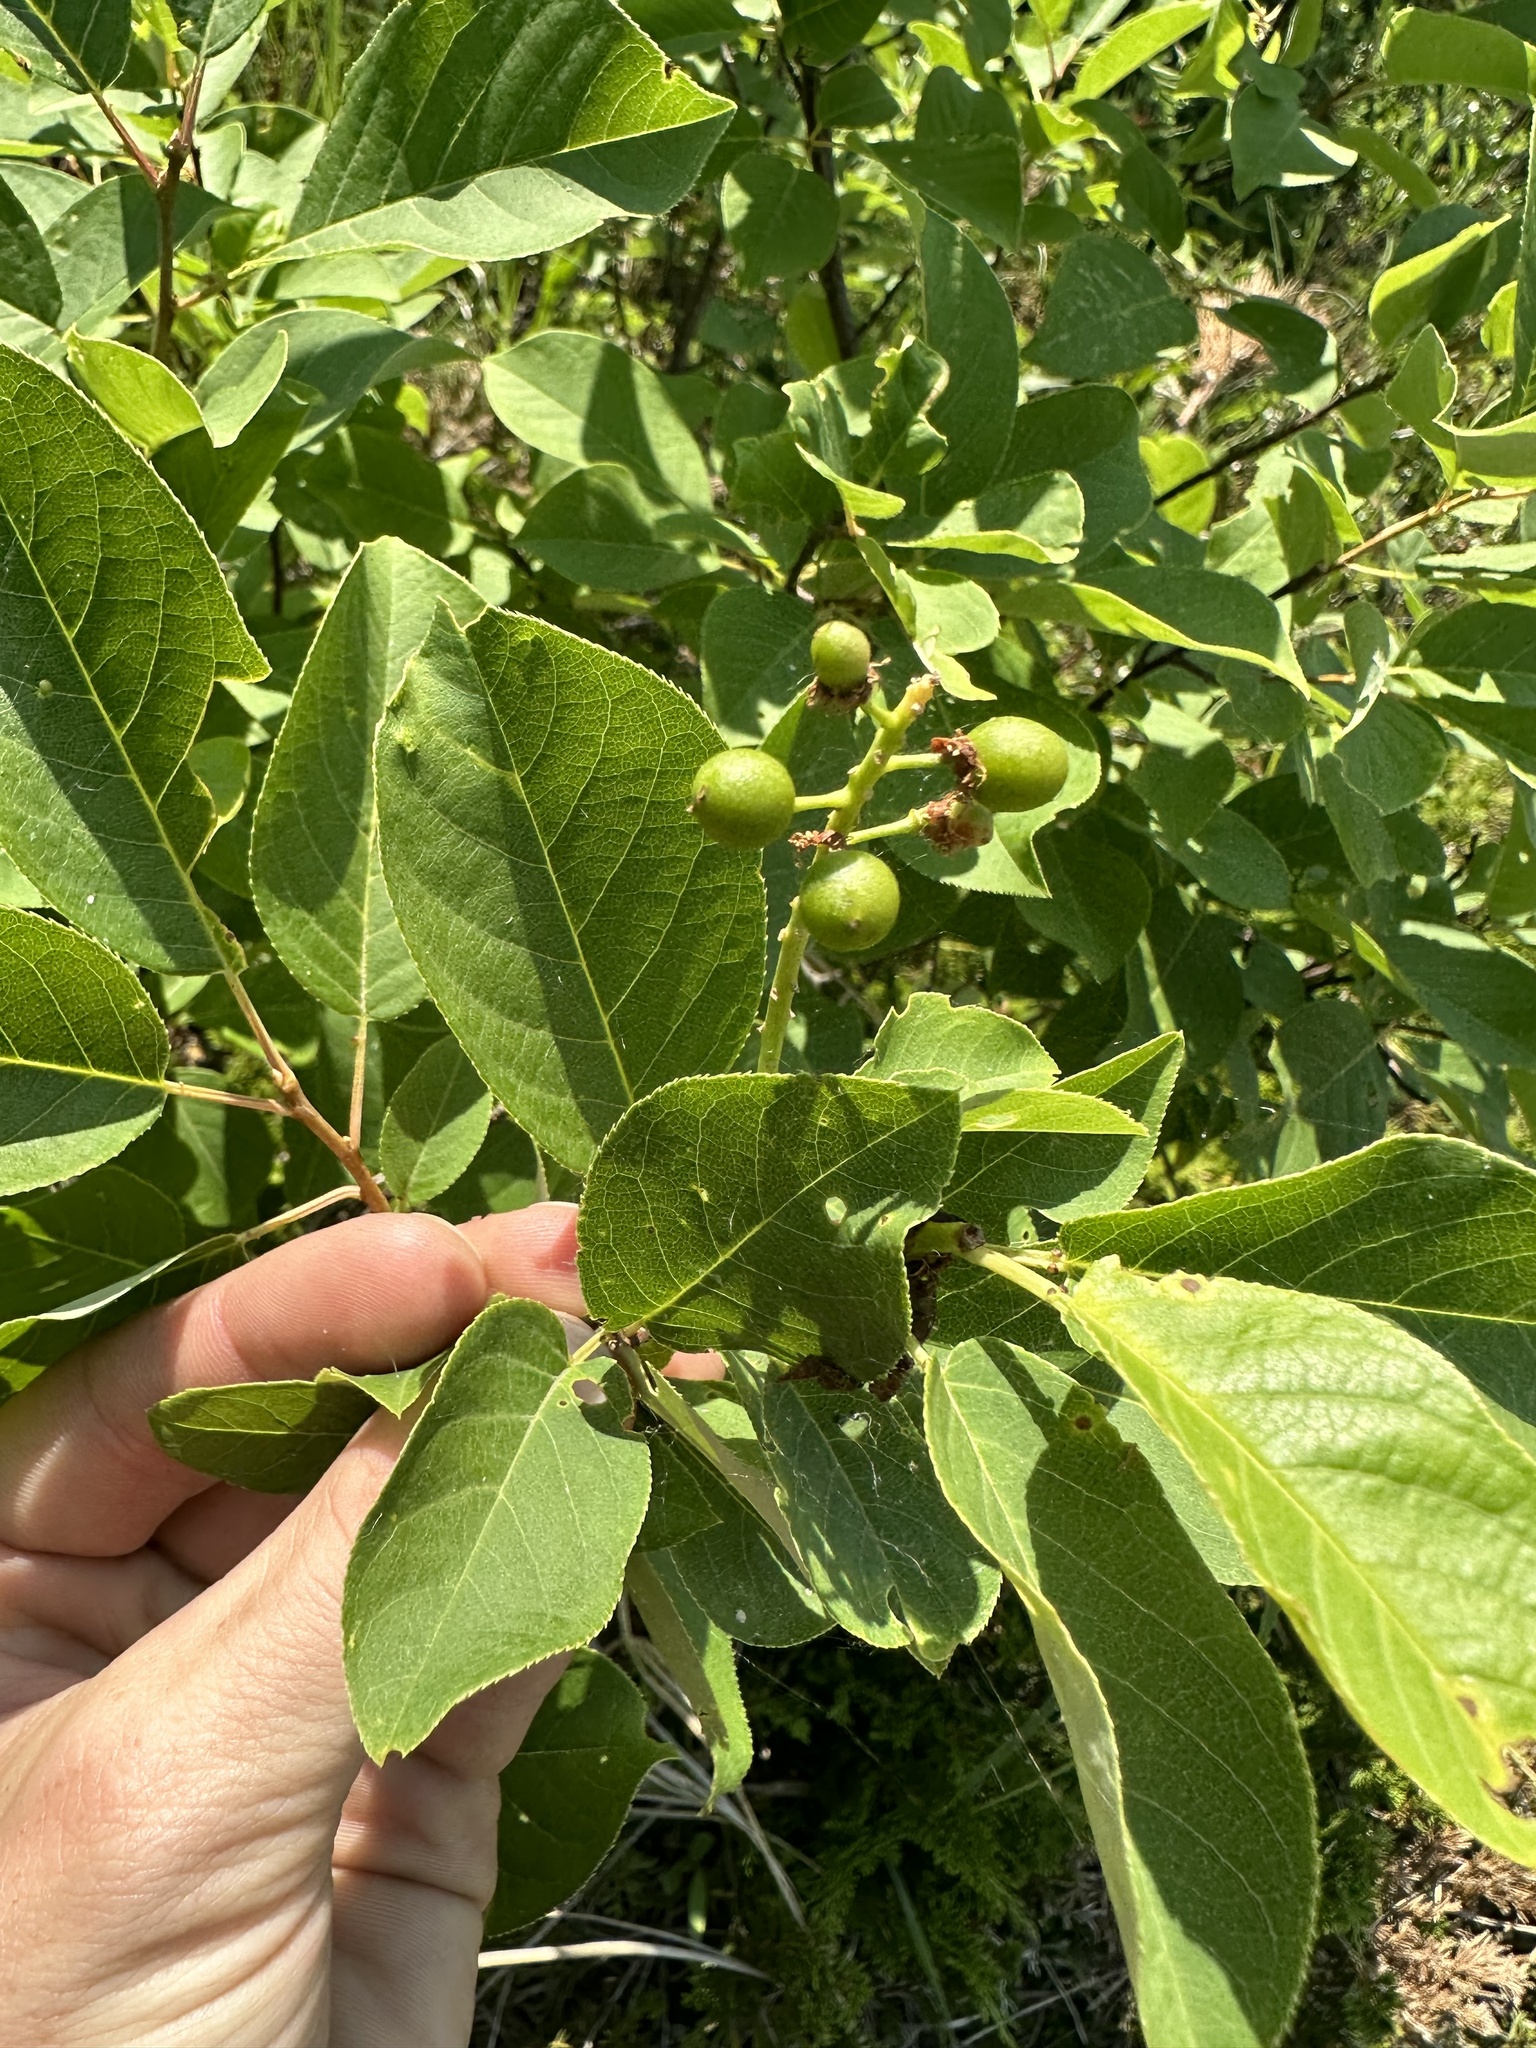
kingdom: Plantae
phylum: Tracheophyta
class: Magnoliopsida
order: Rosales
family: Rosaceae
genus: Prunus
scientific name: Prunus virginiana
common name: Chokecherry
